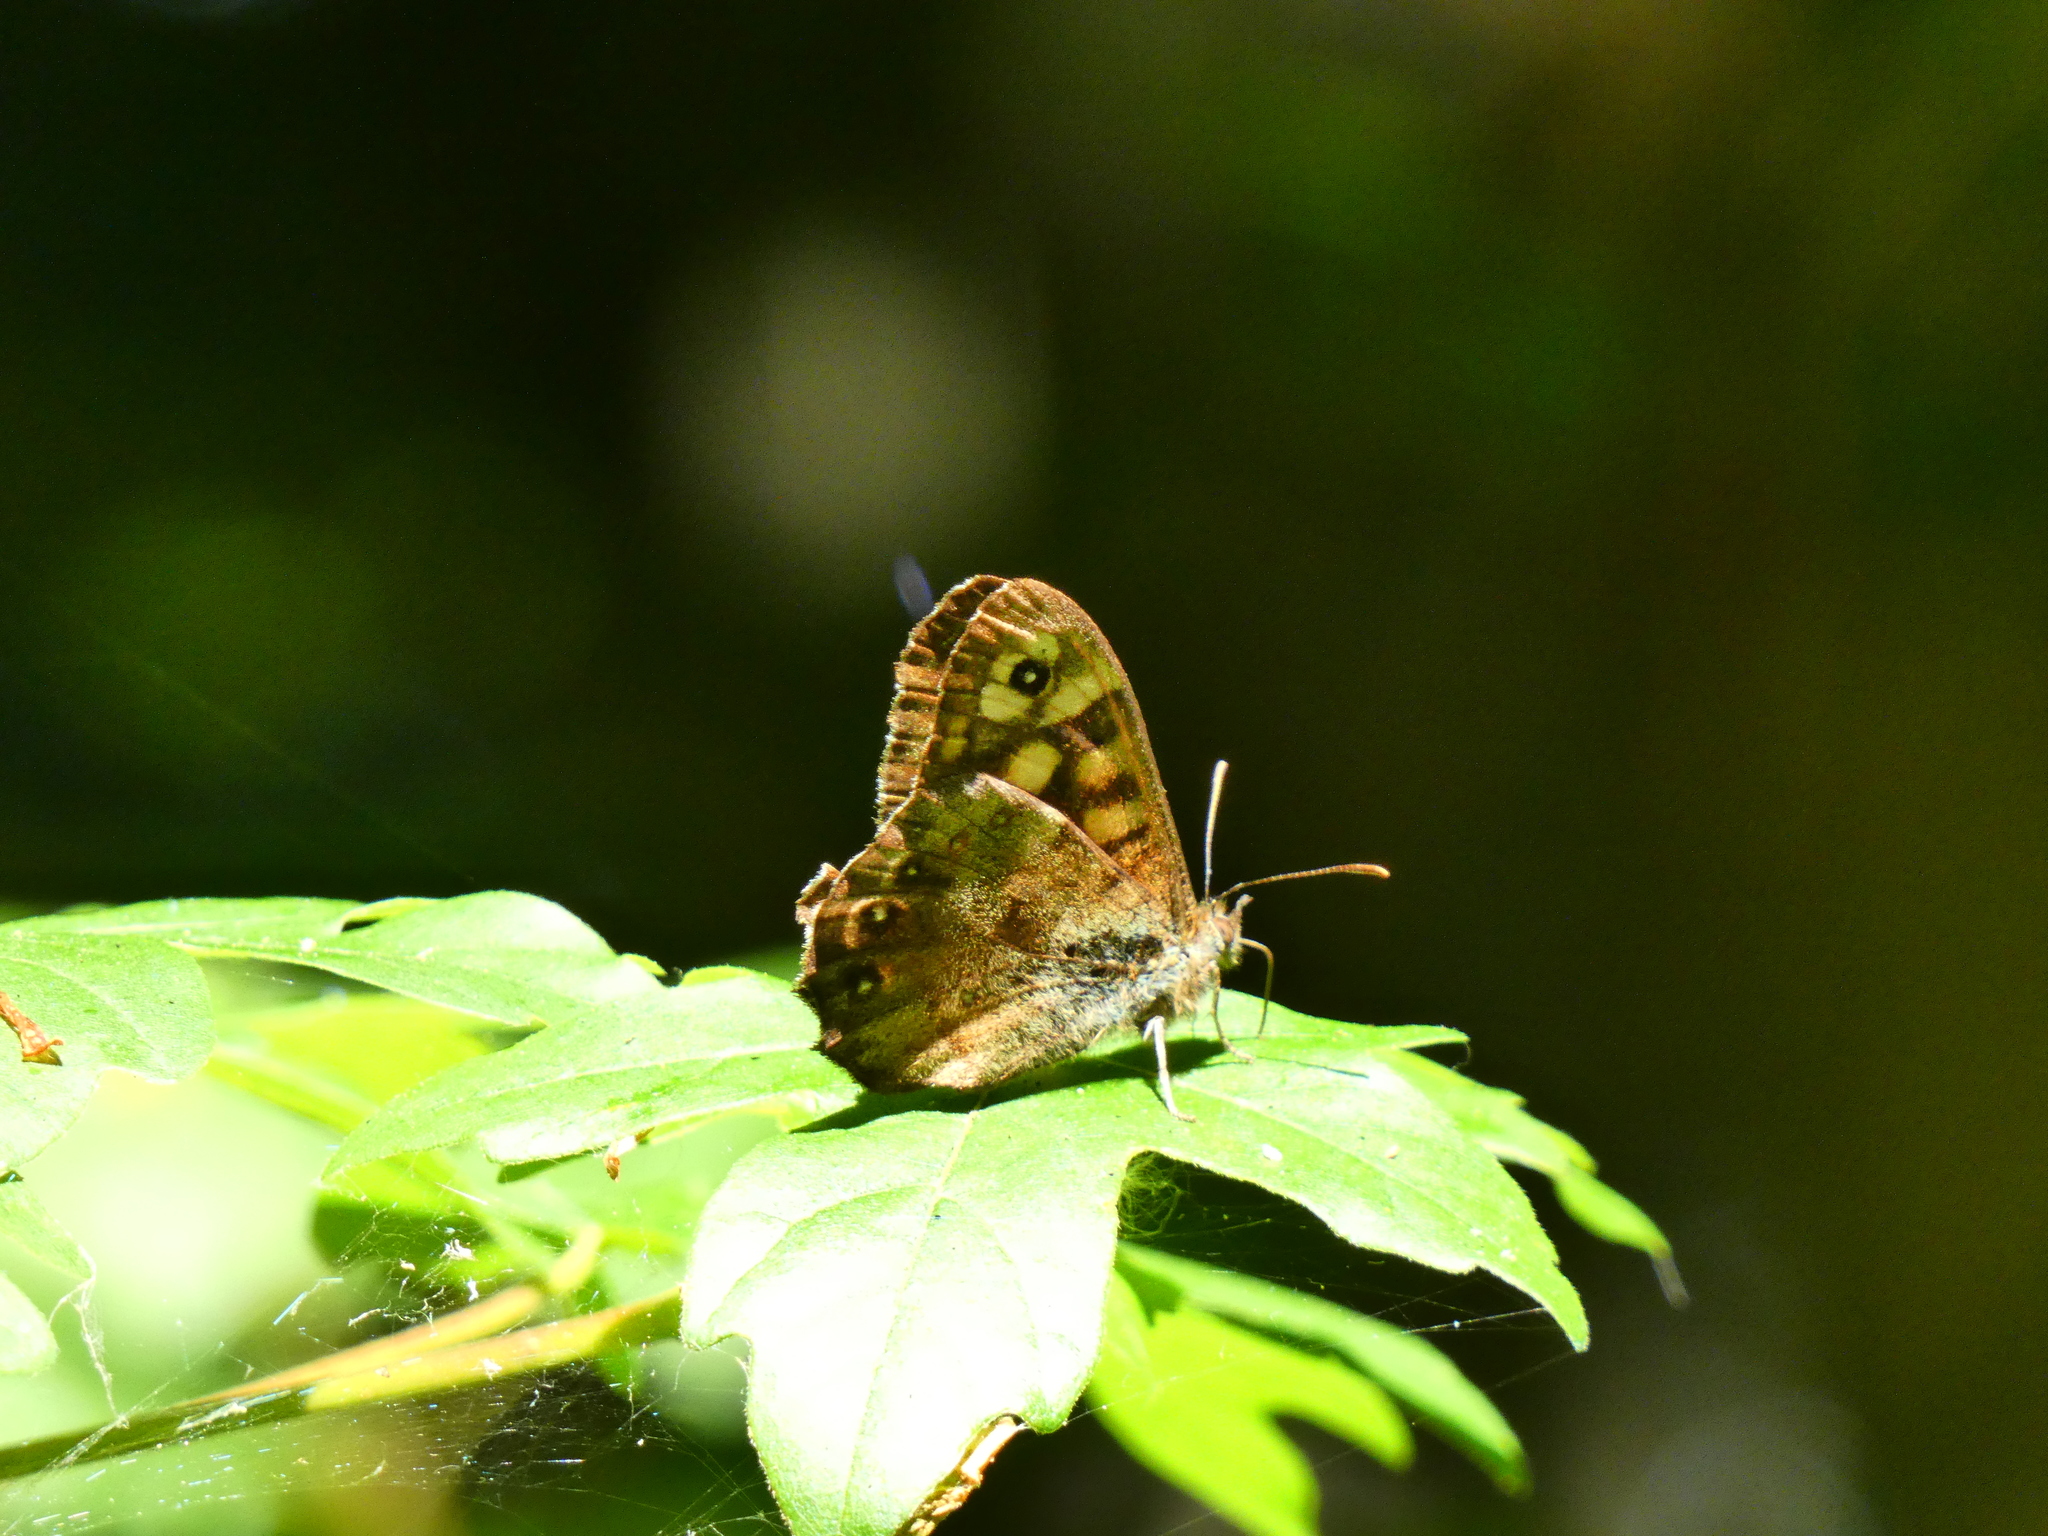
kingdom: Animalia
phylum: Arthropoda
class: Insecta
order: Lepidoptera
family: Nymphalidae
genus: Pararge
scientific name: Pararge aegeria
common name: Speckled wood
